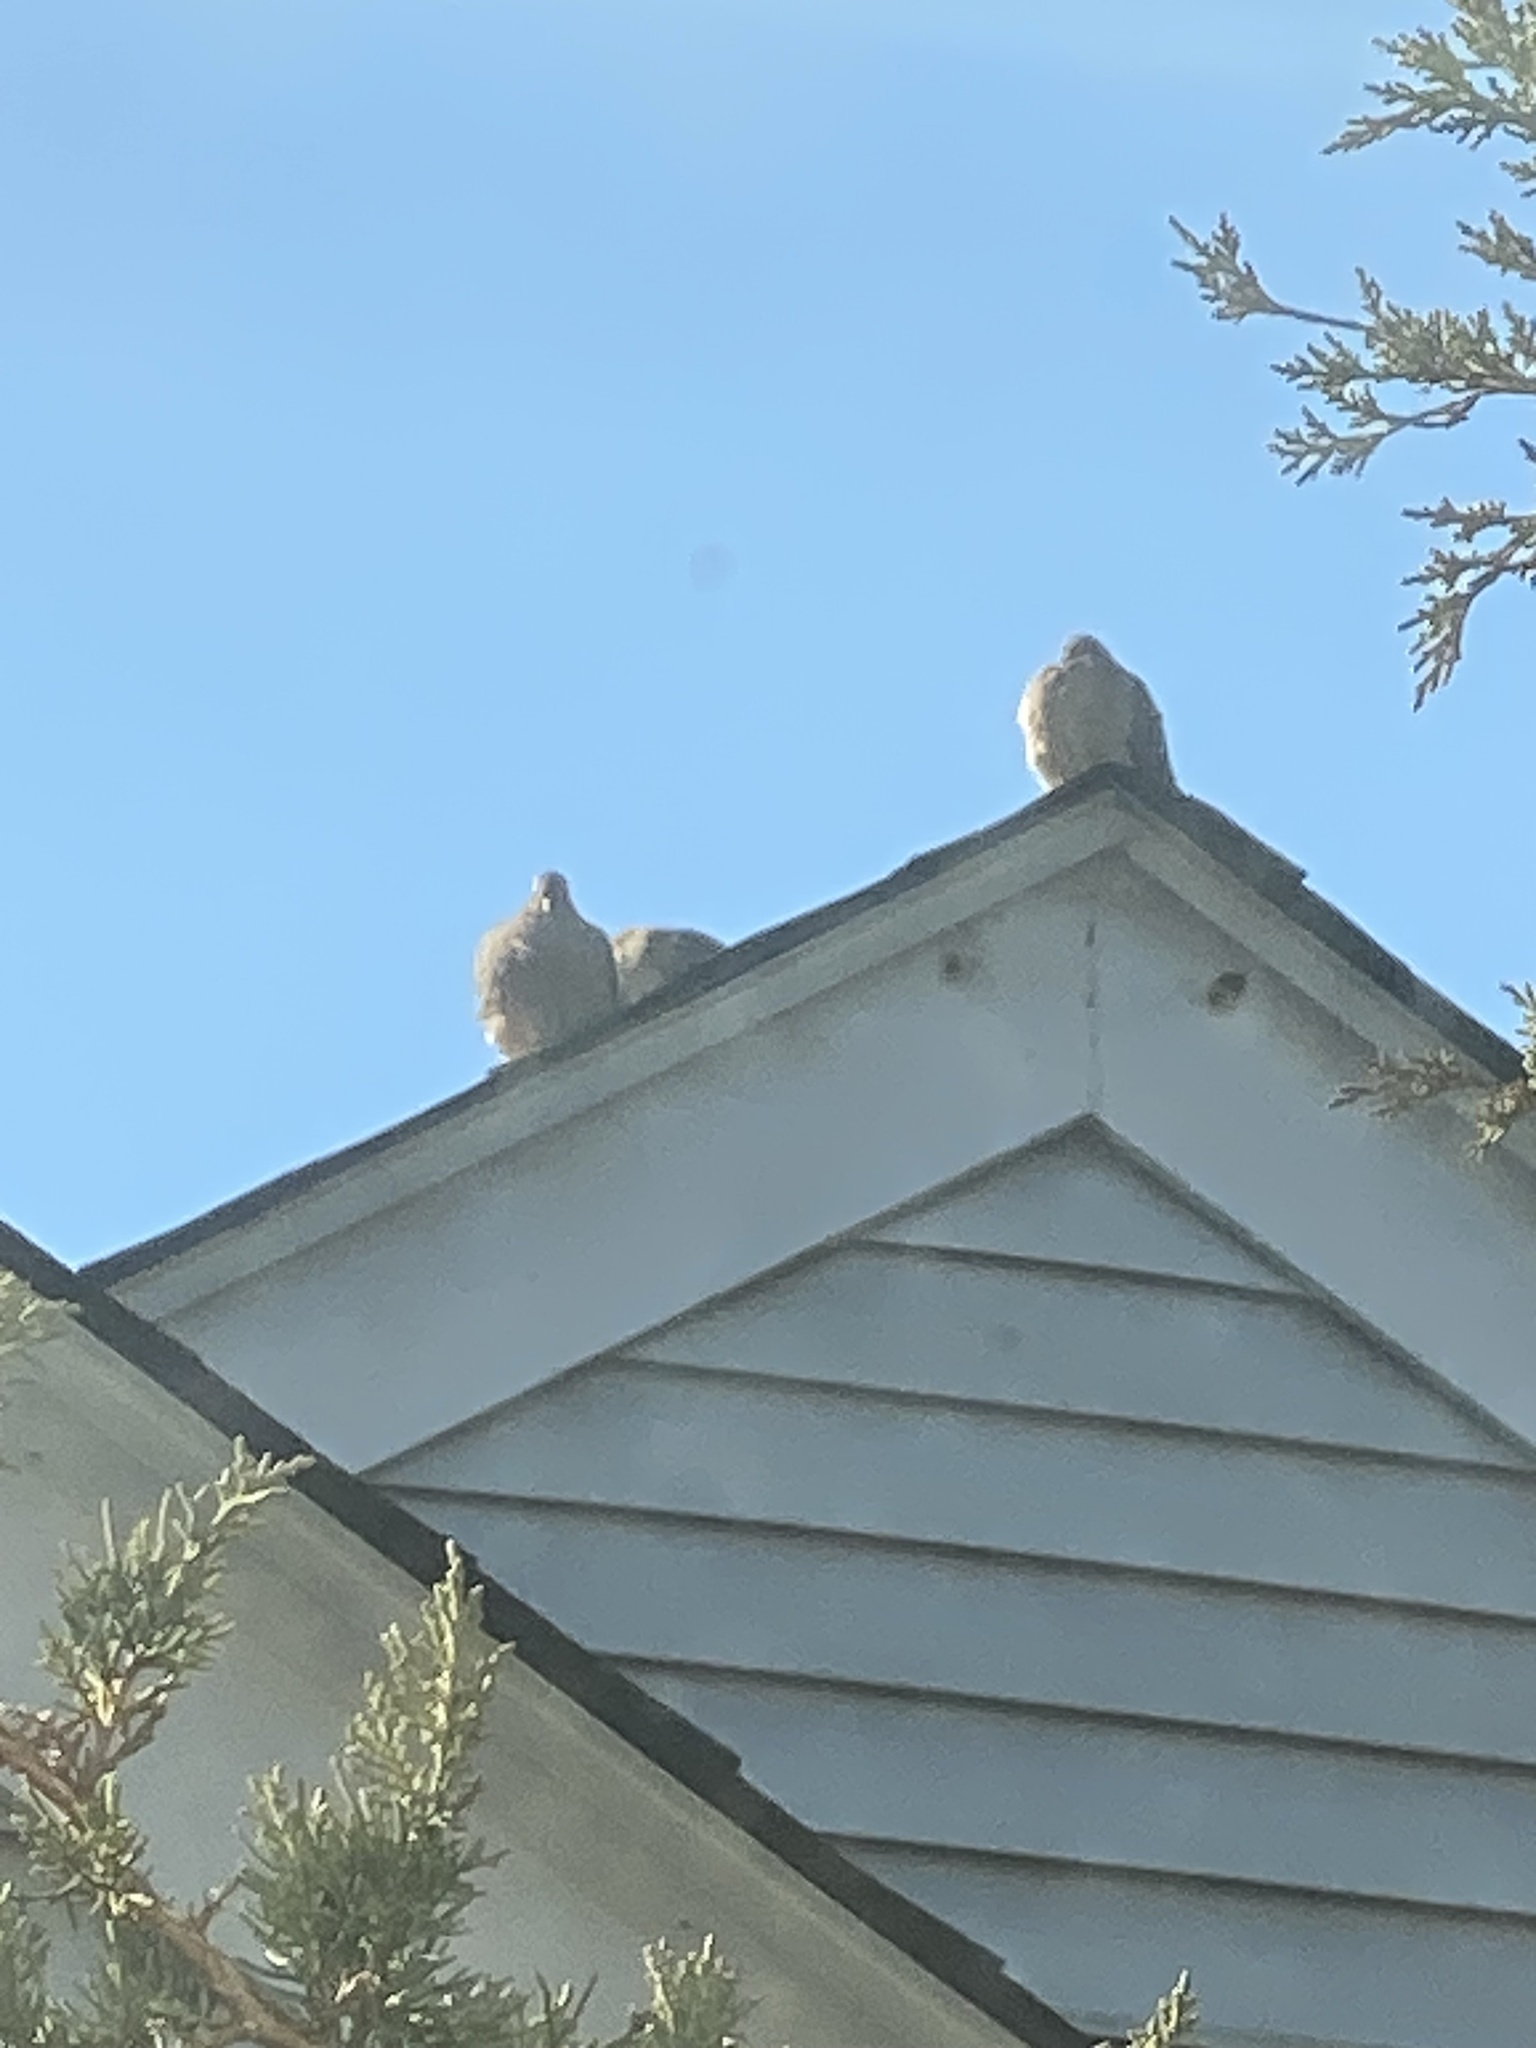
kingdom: Animalia
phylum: Chordata
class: Aves
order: Columbiformes
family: Columbidae
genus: Zenaida
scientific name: Zenaida macroura
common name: Mourning dove
